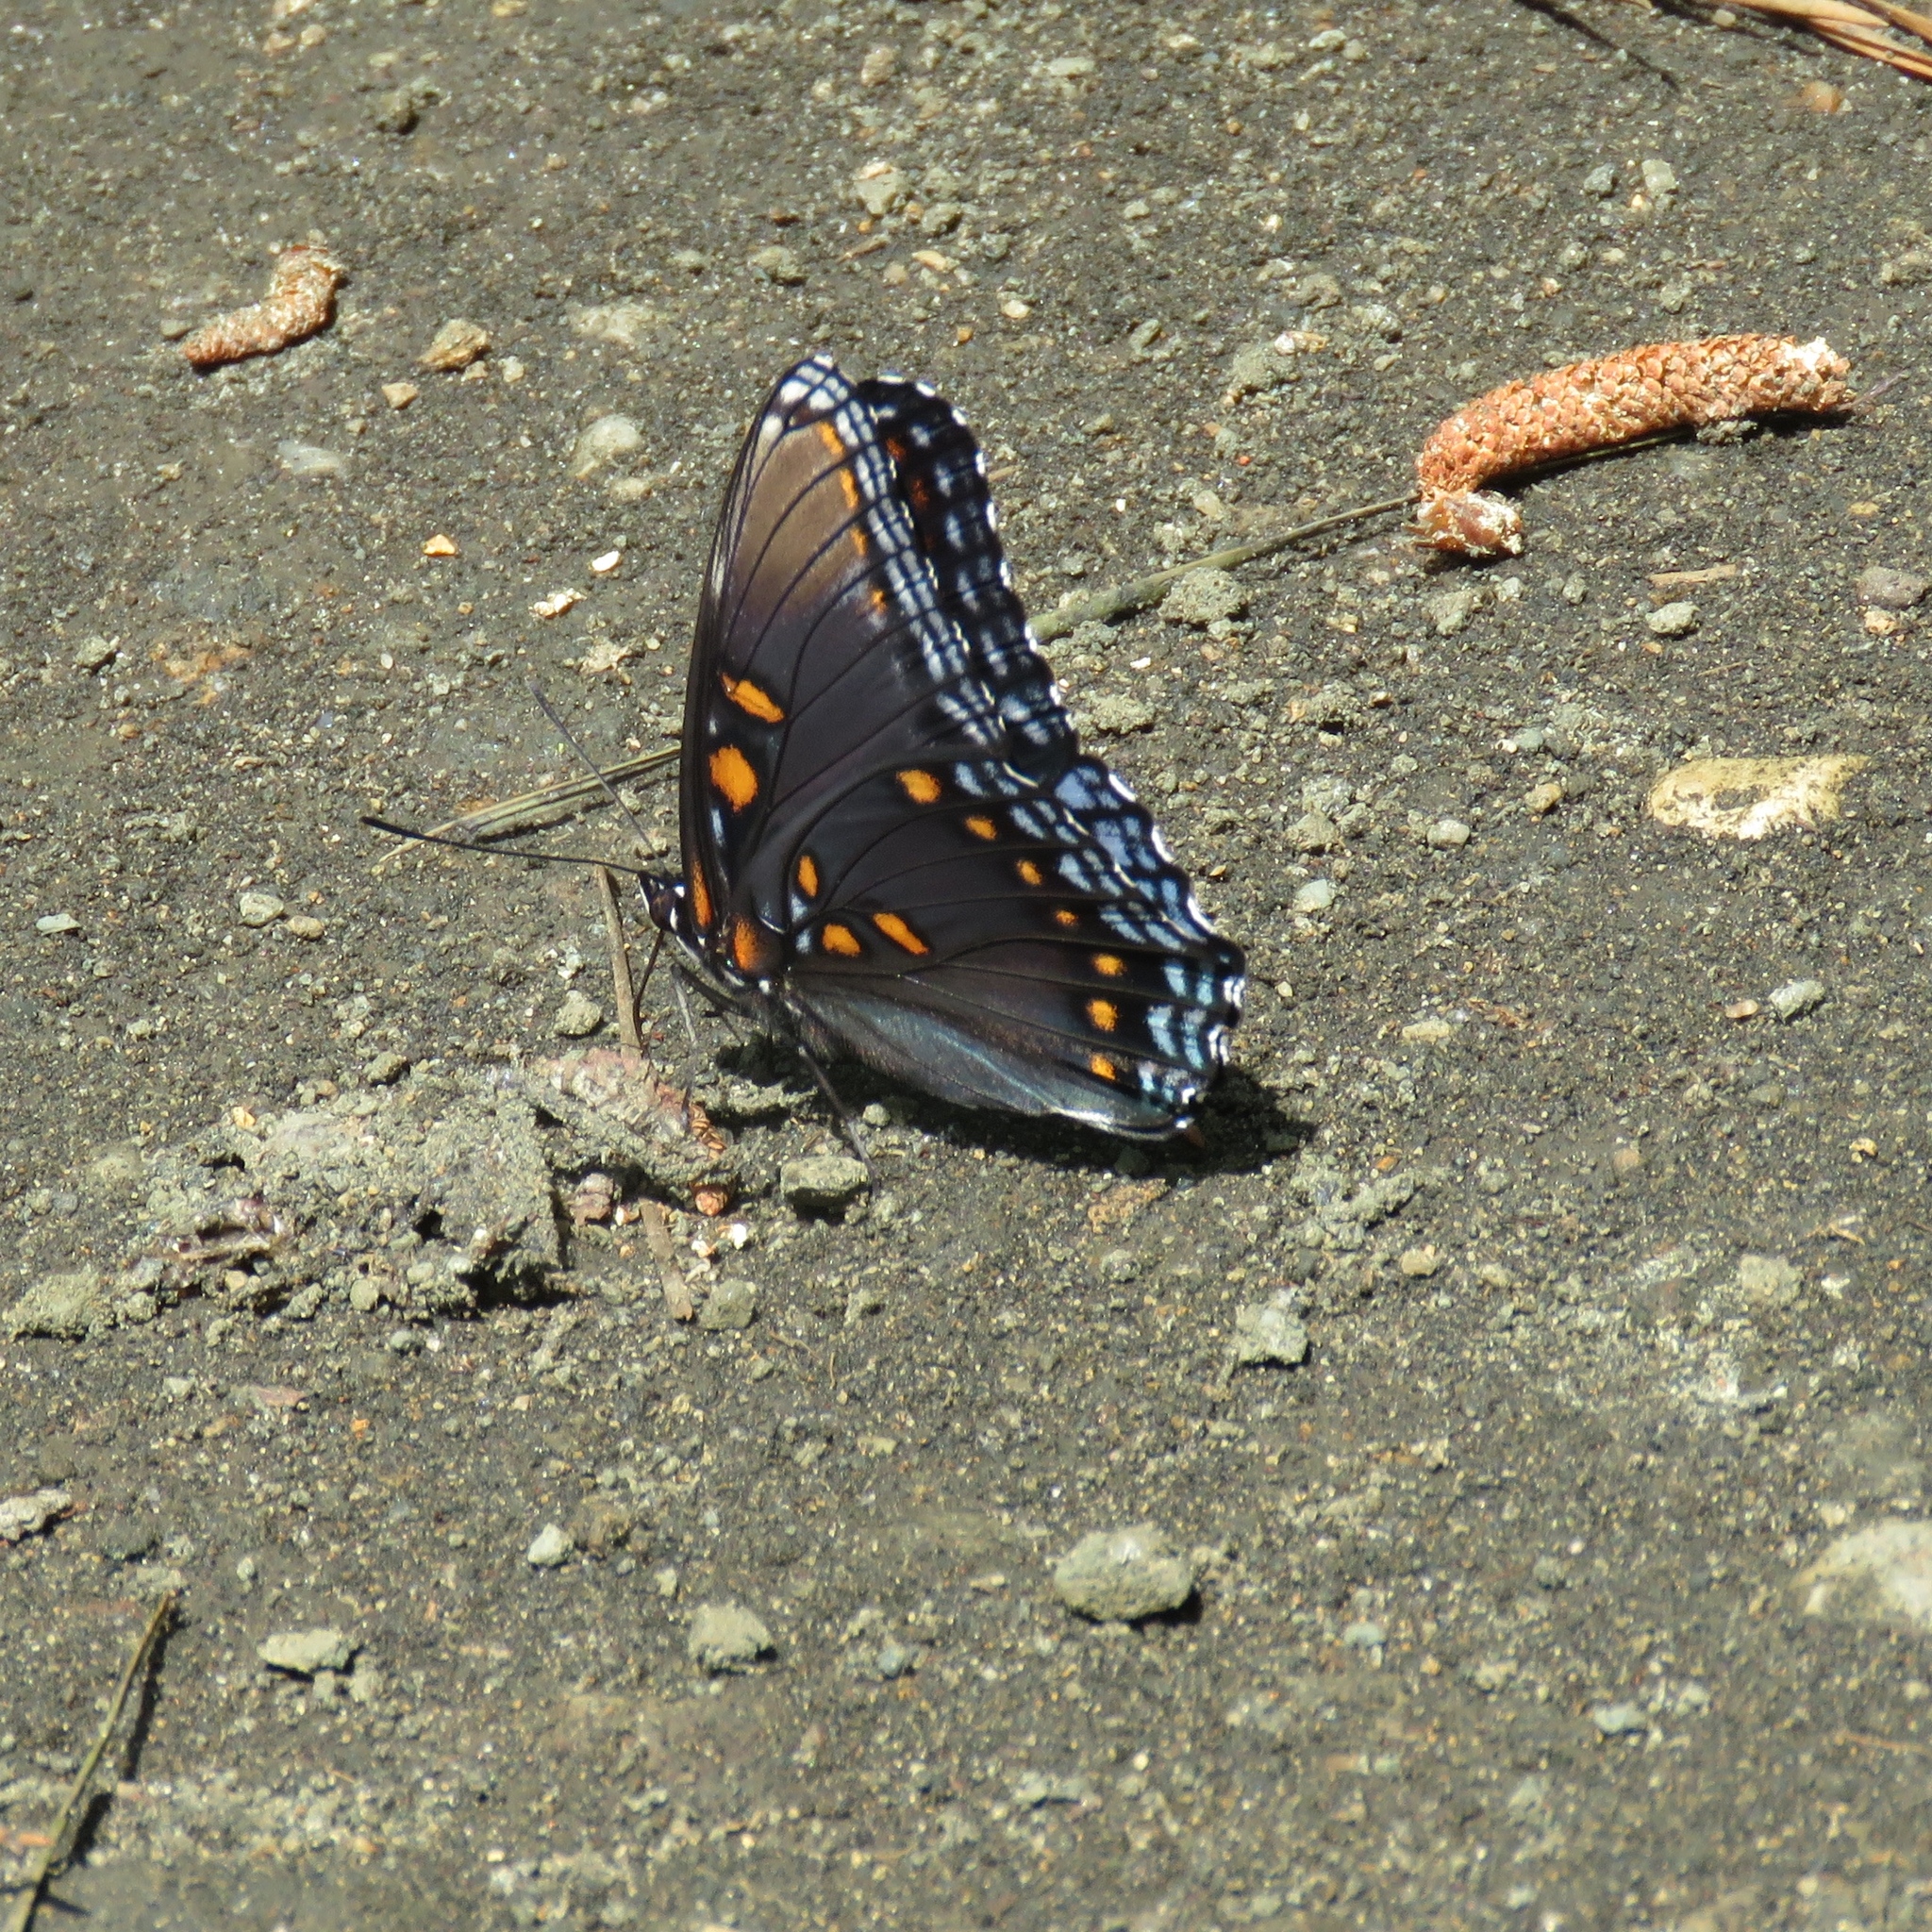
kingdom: Animalia
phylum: Arthropoda
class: Insecta
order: Lepidoptera
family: Nymphalidae
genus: Limenitis
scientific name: Limenitis astyanax
